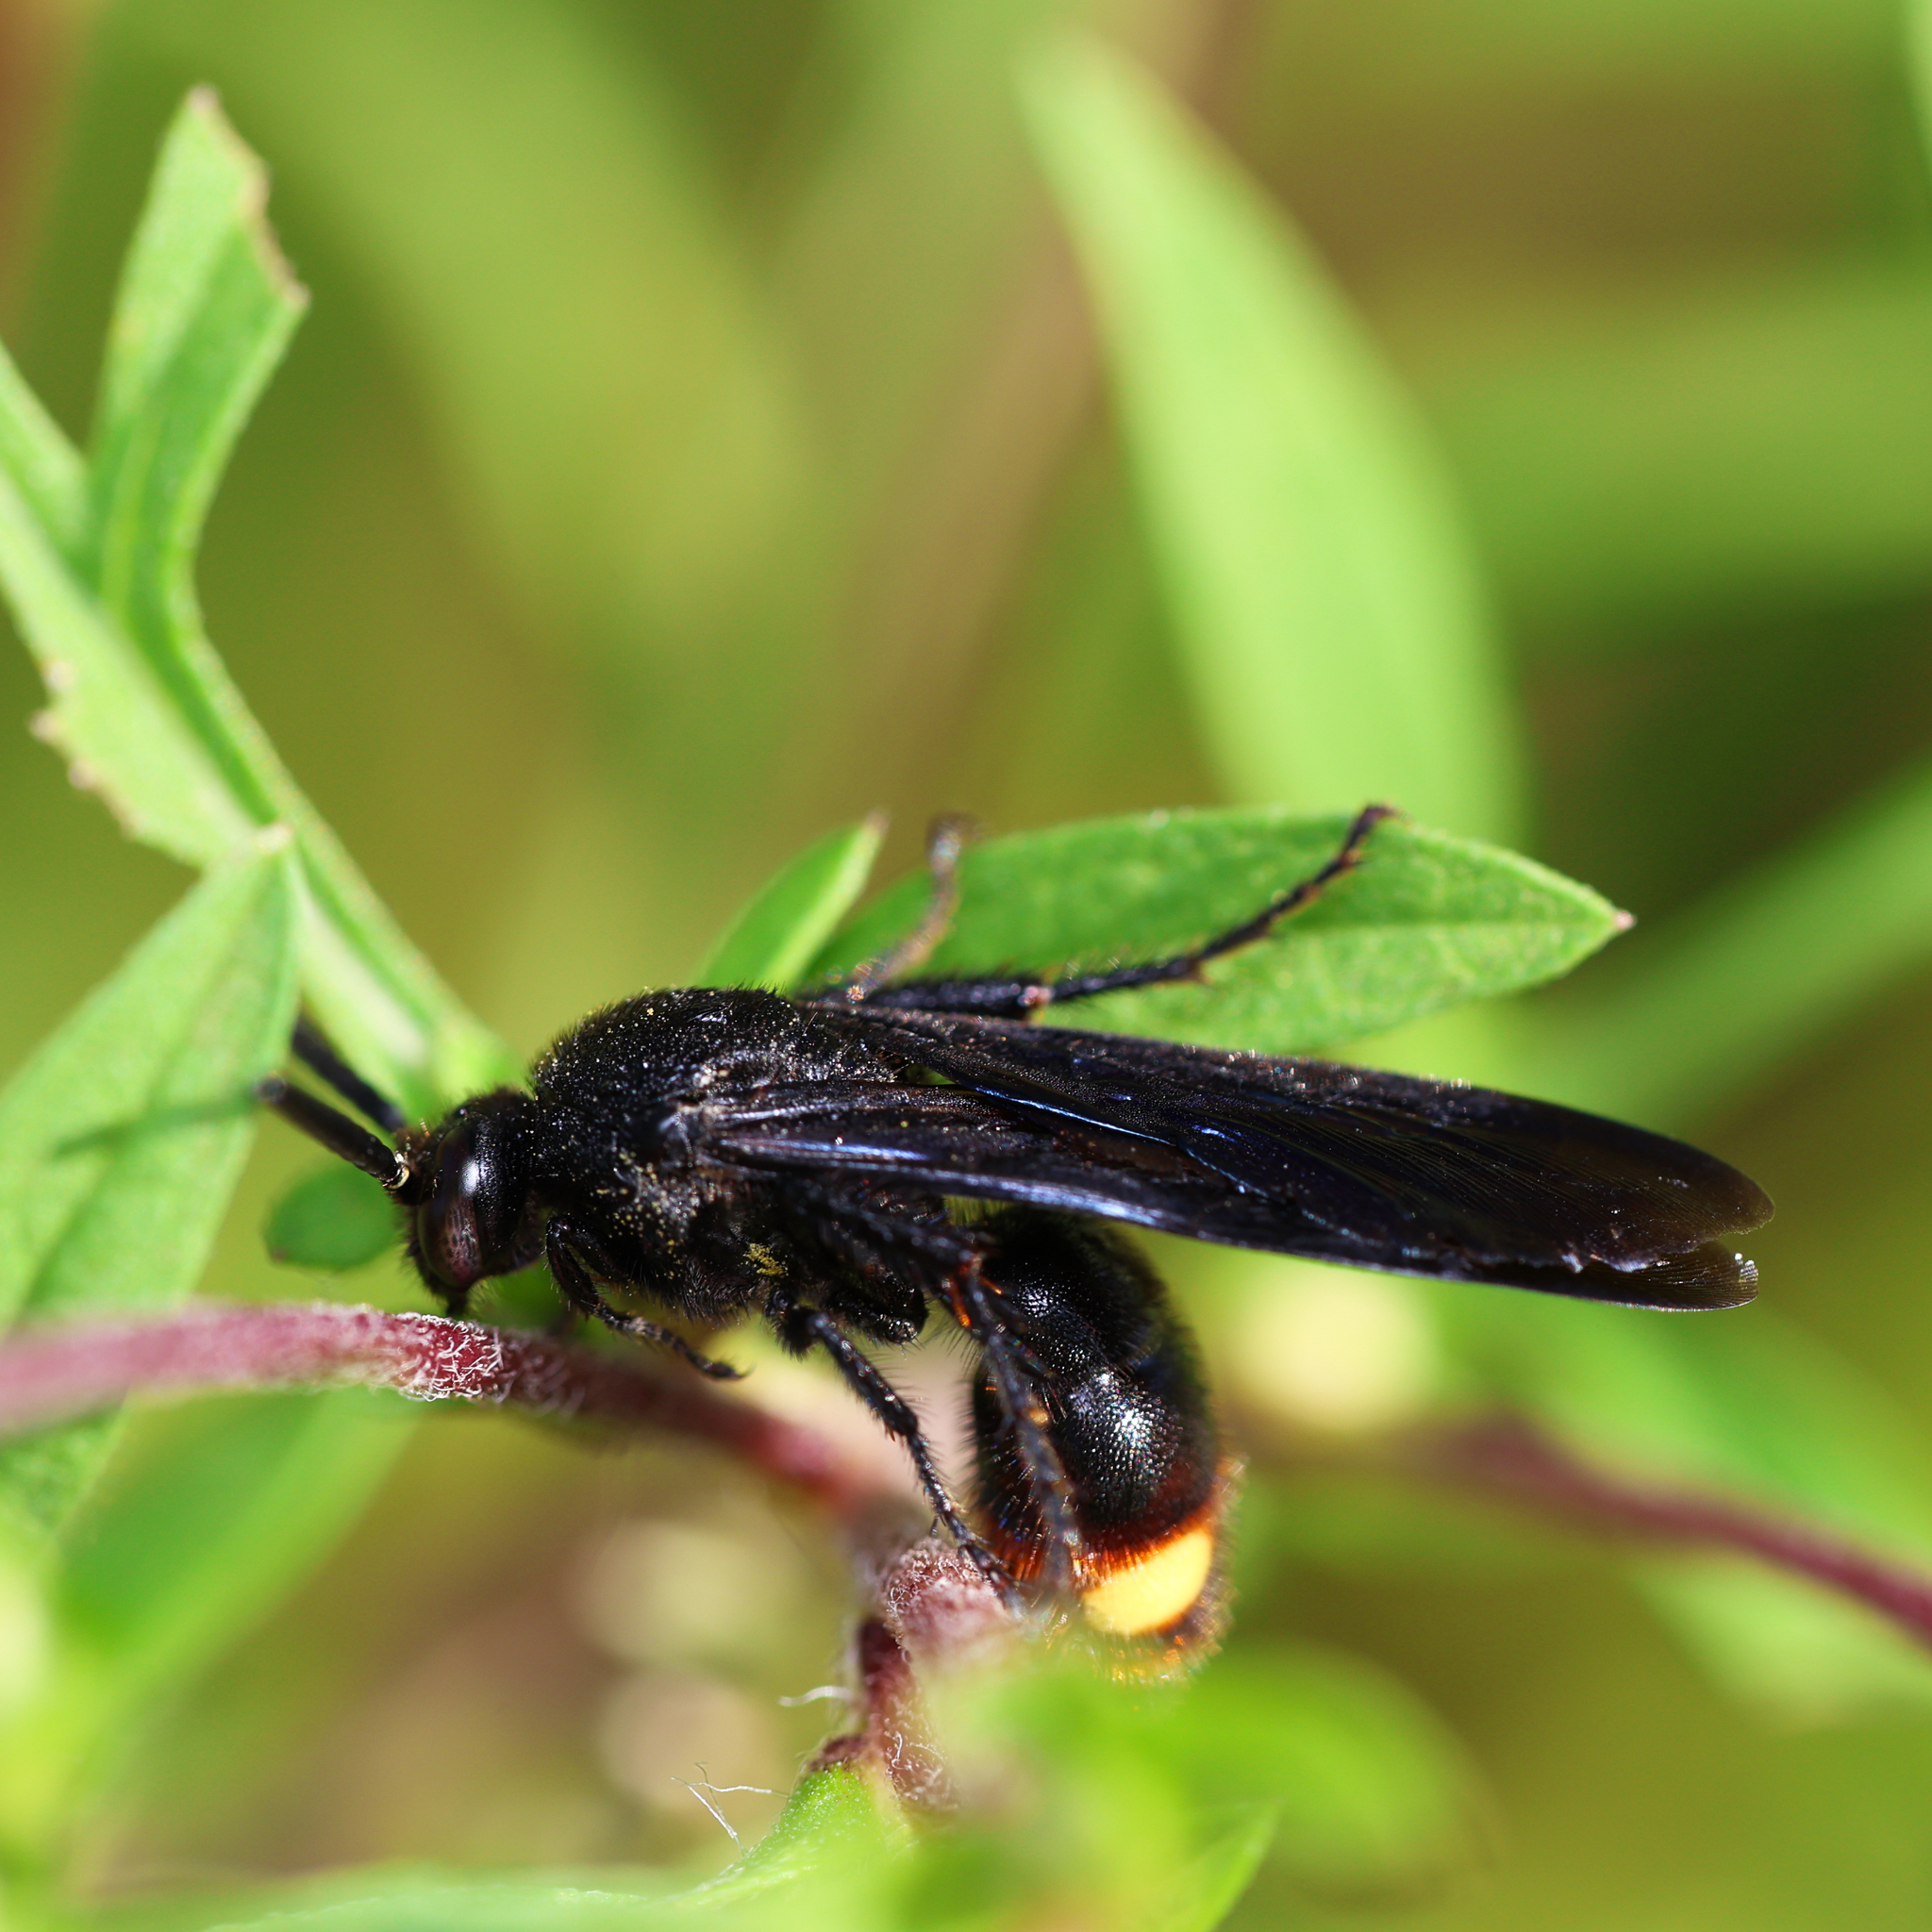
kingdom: Animalia
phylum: Arthropoda
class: Insecta
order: Hymenoptera
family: Scoliidae
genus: Scolia
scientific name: Scolia dubia
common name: Blue-winged scoliid wasp
